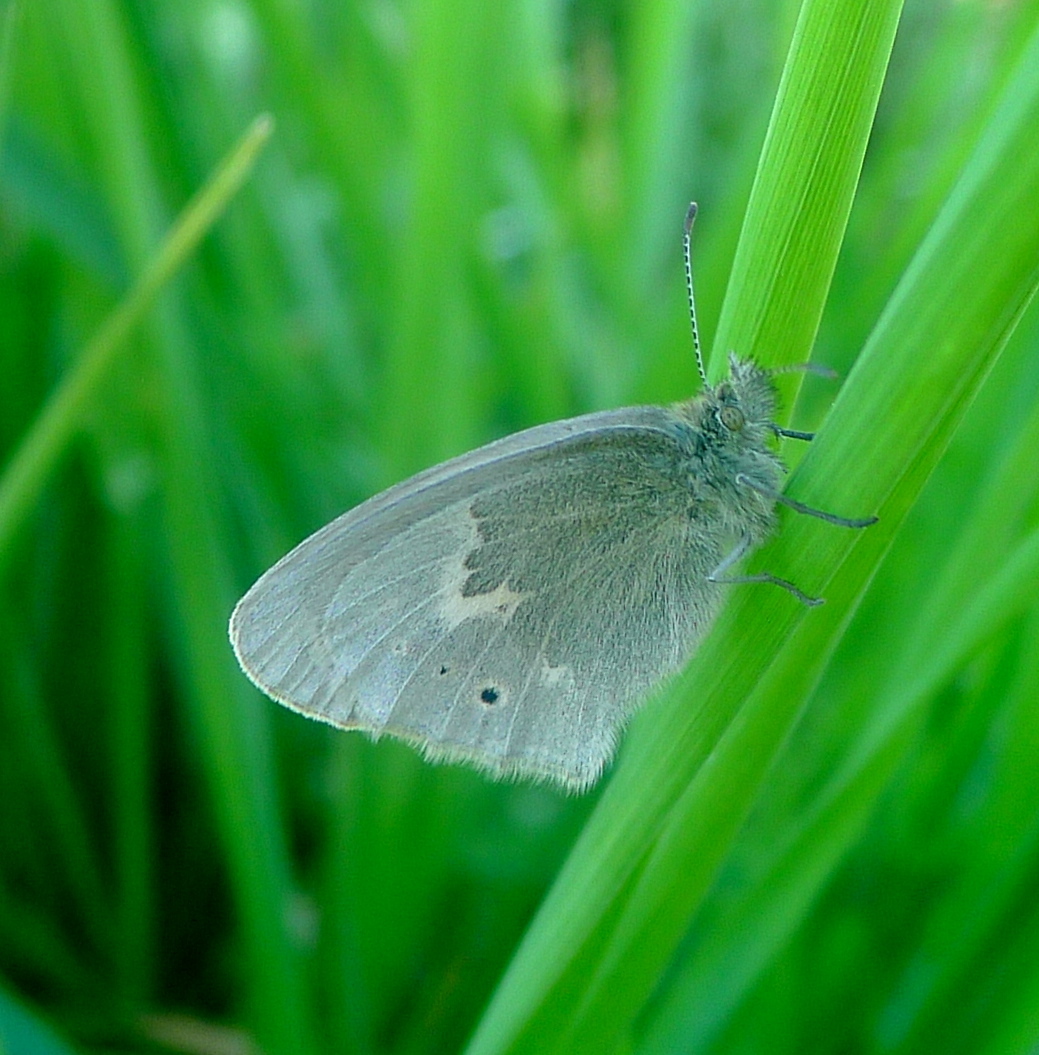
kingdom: Animalia
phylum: Arthropoda
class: Insecta
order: Lepidoptera
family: Nymphalidae
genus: Coenonympha
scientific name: Coenonympha california
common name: Common ringlet
